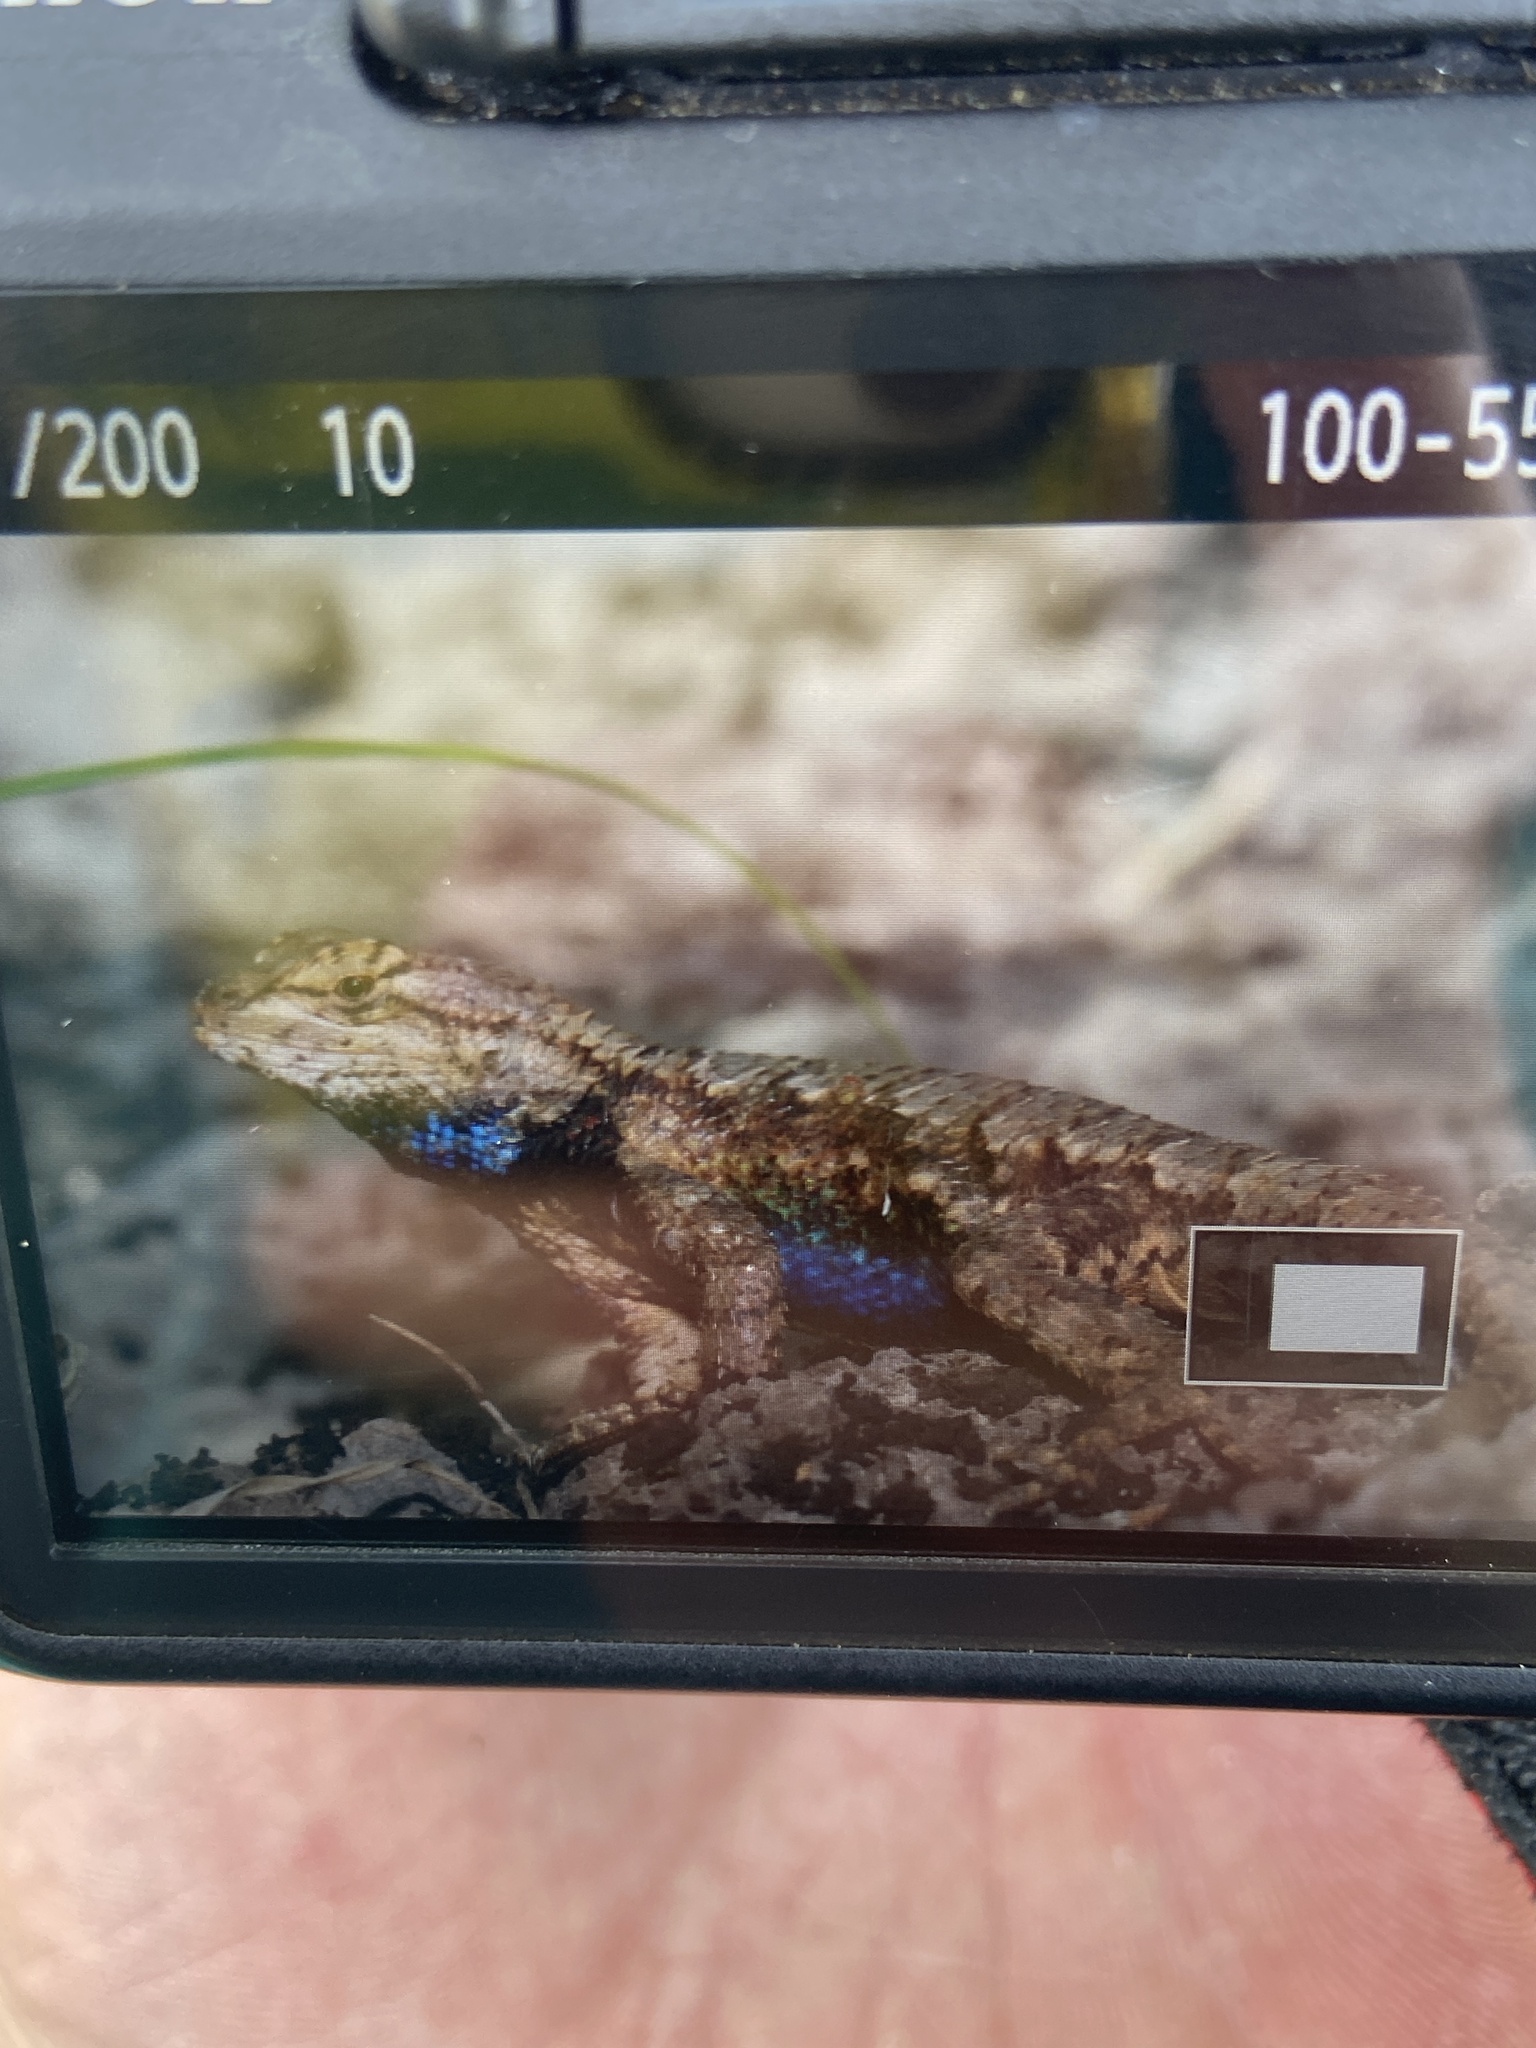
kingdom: Animalia
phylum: Chordata
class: Squamata
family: Phrynosomatidae
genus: Sceloporus
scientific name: Sceloporus undulatus
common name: Eastern fence lizard
